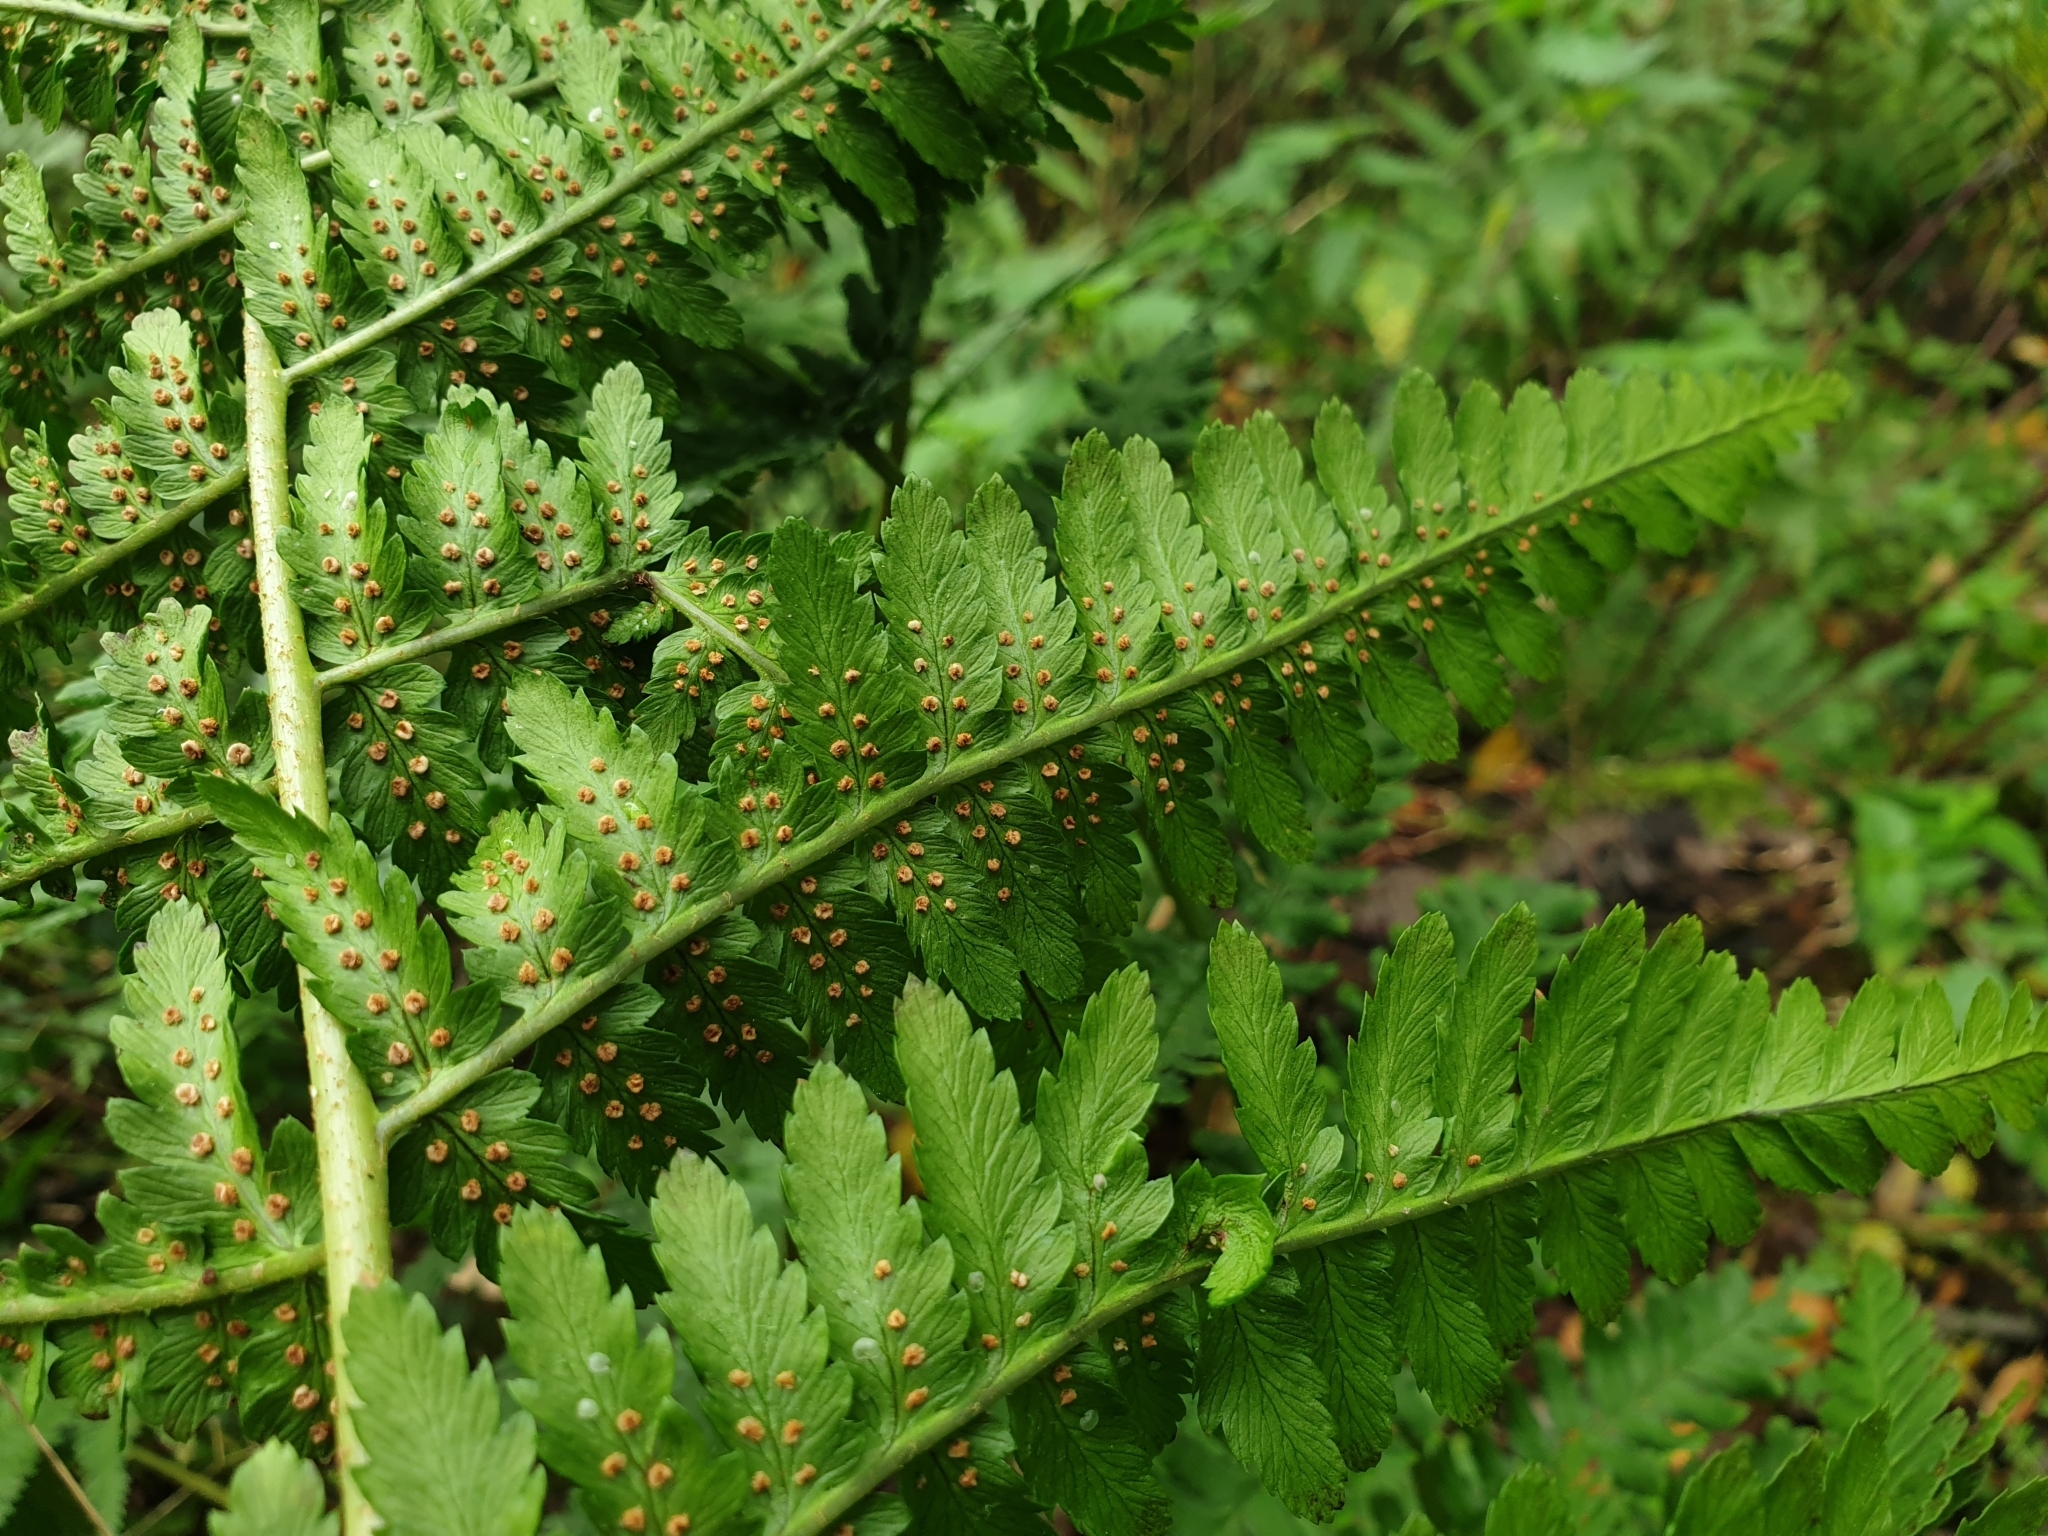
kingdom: Plantae
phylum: Tracheophyta
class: Polypodiopsida
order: Polypodiales
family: Dryopteridaceae
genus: Dryopteris
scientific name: Dryopteris filix-mas
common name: Male fern
